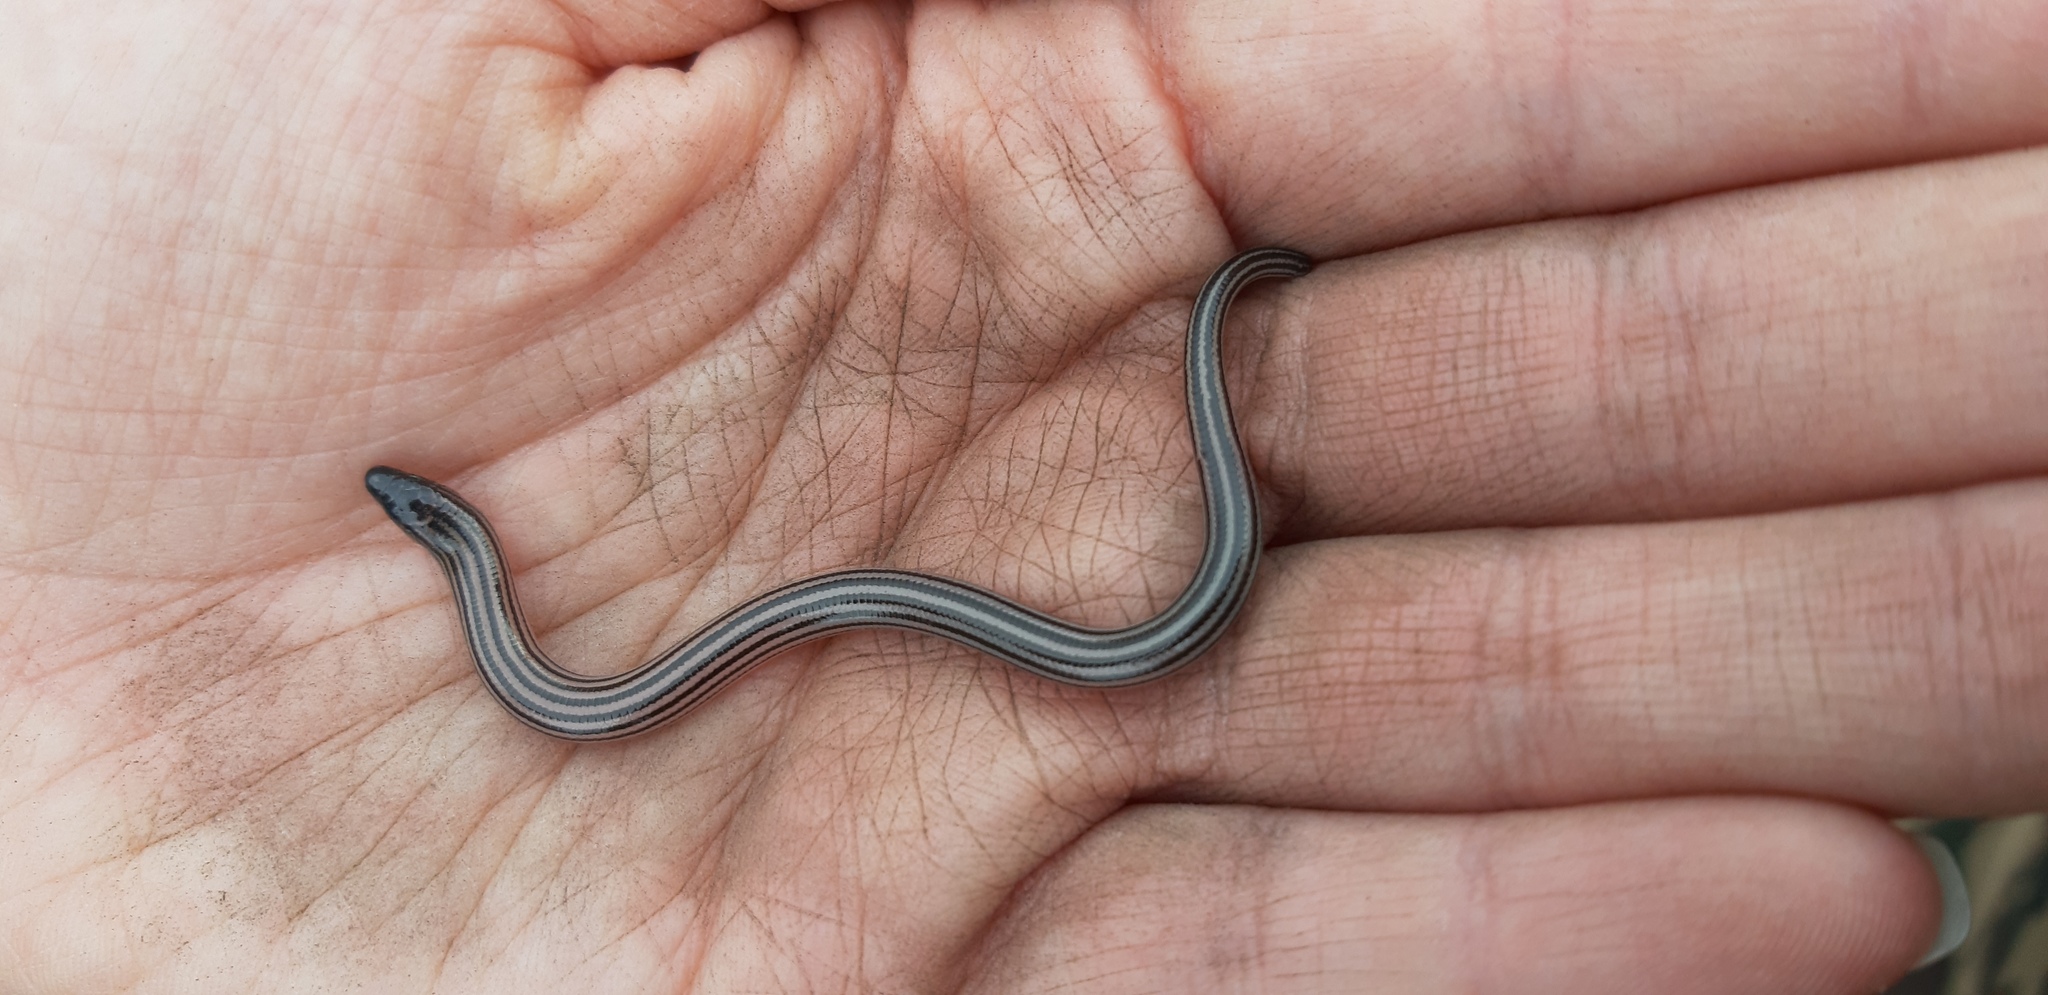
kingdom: Animalia
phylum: Chordata
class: Squamata
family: Scincidae
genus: Acontias
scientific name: Acontias orientalis
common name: Eastern cape legless skink
